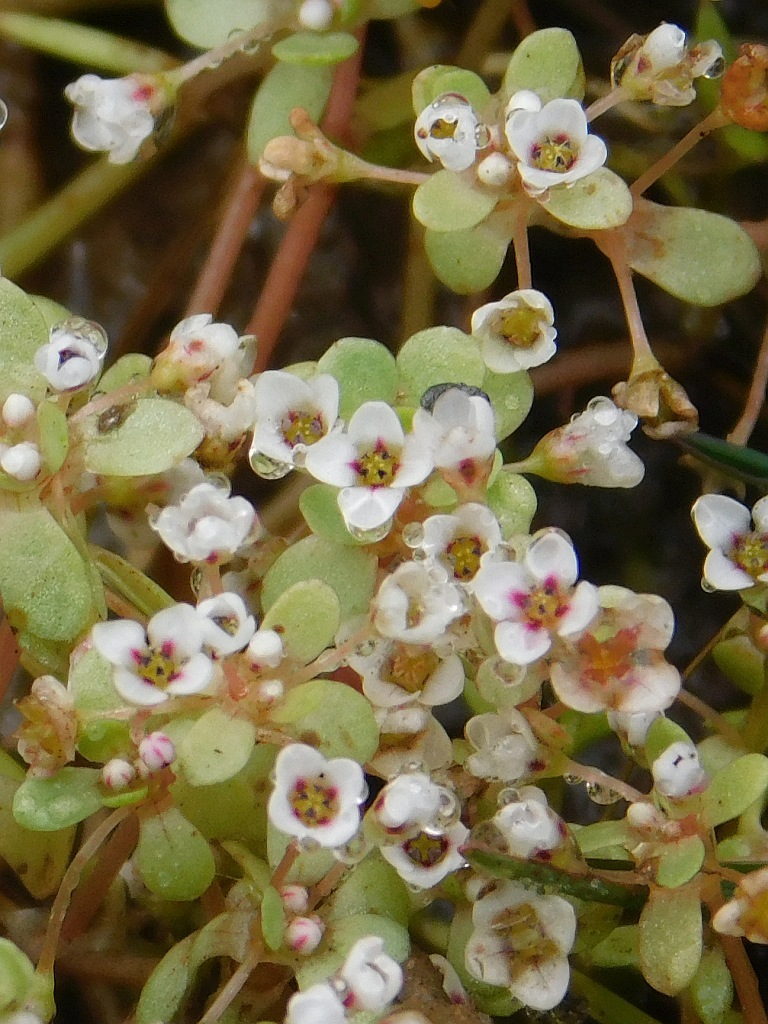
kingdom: Plantae
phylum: Tracheophyta
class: Magnoliopsida
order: Saxifragales
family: Crassulaceae
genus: Crassula
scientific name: Crassula natans
